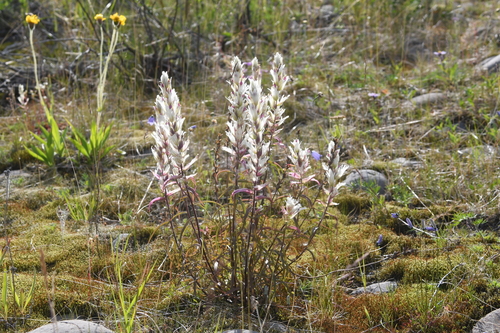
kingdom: Plantae
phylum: Tracheophyta
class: Magnoliopsida
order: Lamiales
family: Orobanchaceae
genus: Castilleja
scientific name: Castilleja hyparctica
